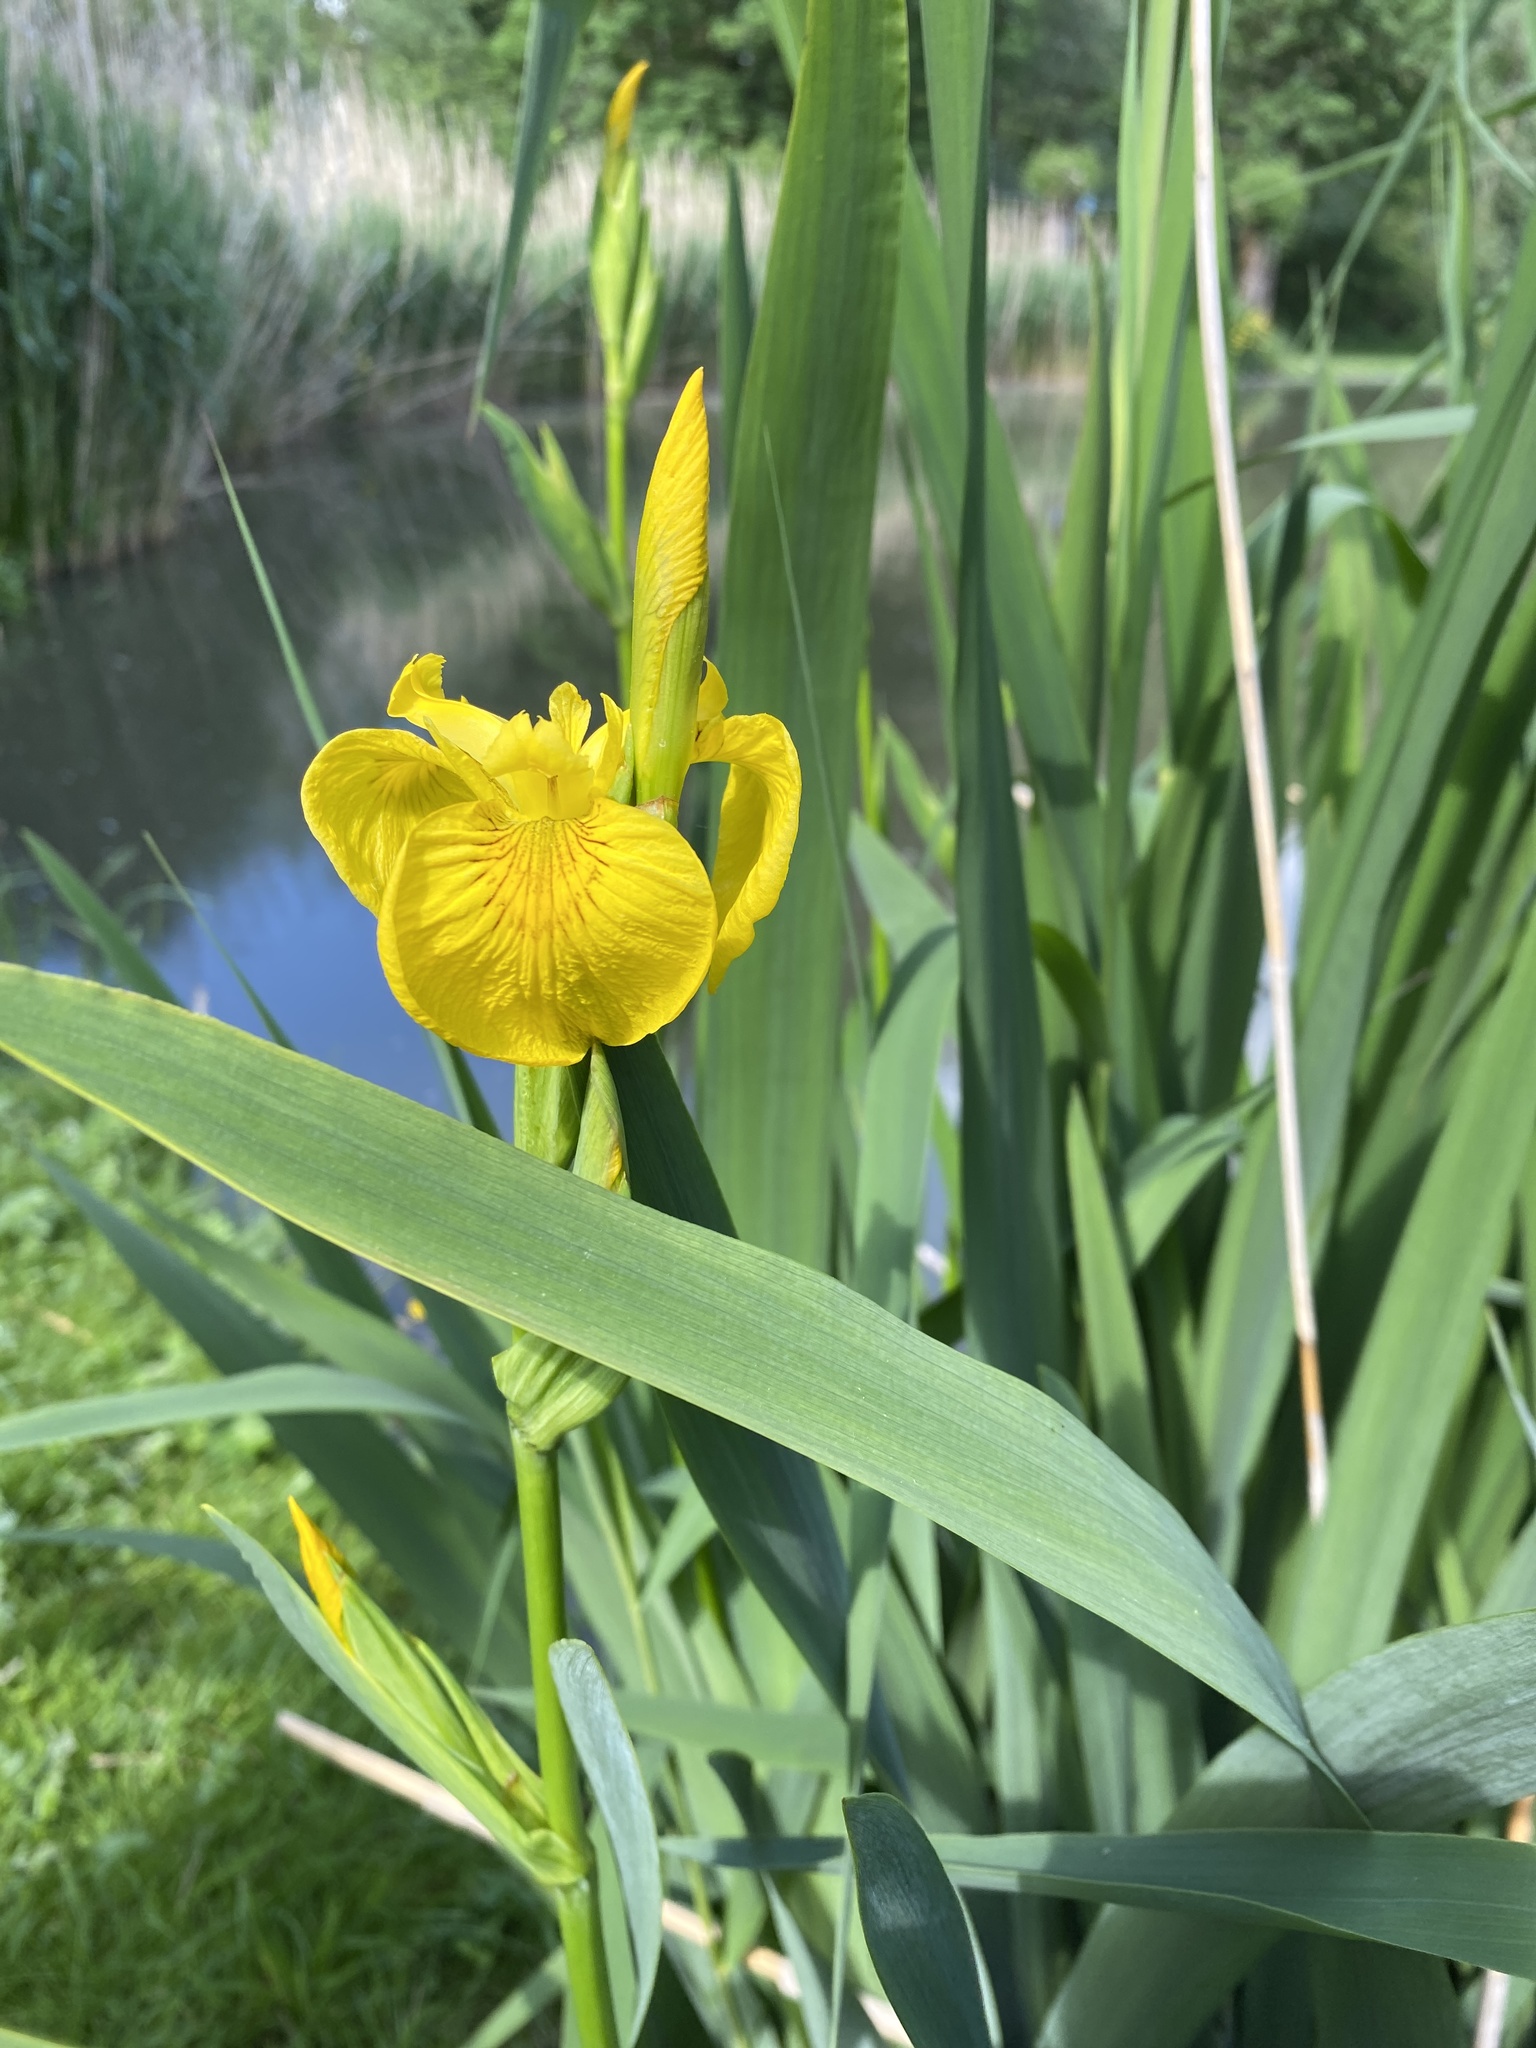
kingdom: Plantae
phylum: Tracheophyta
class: Liliopsida
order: Asparagales
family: Iridaceae
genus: Iris
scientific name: Iris pseudacorus
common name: Yellow flag
